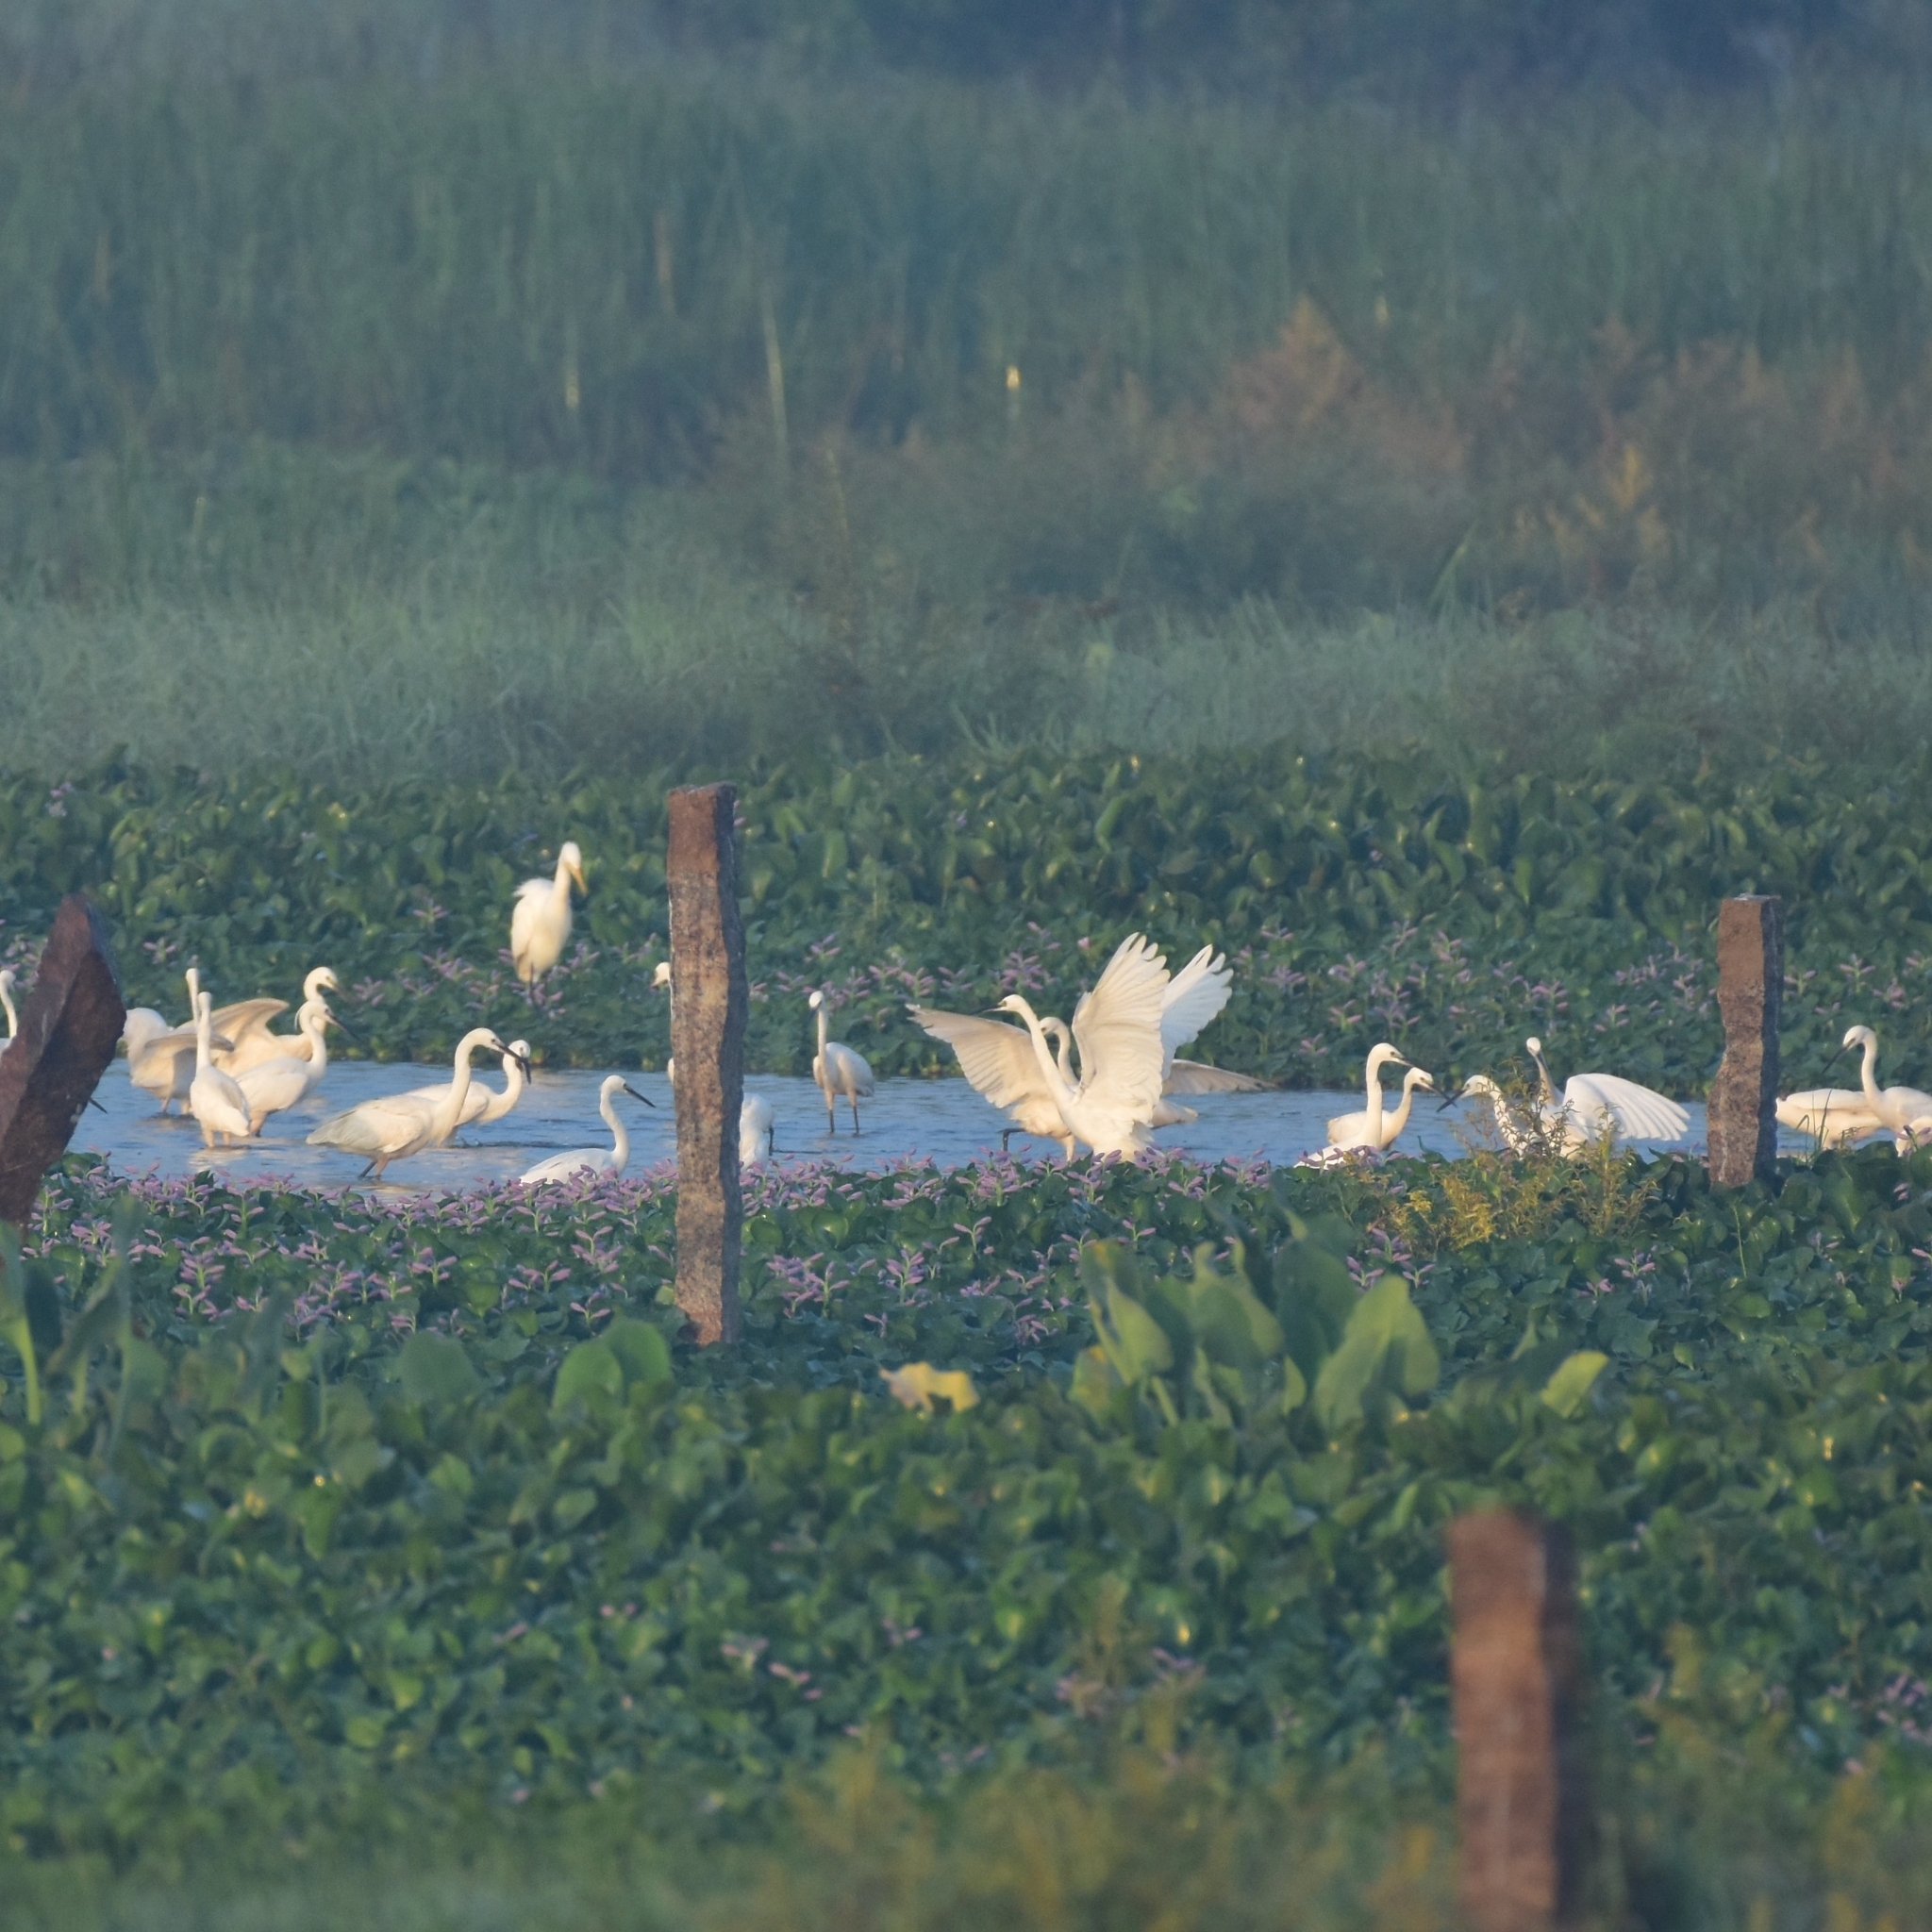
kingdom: Animalia
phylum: Chordata
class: Aves
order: Pelecaniformes
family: Ardeidae
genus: Egretta
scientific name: Egretta garzetta
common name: Little egret
